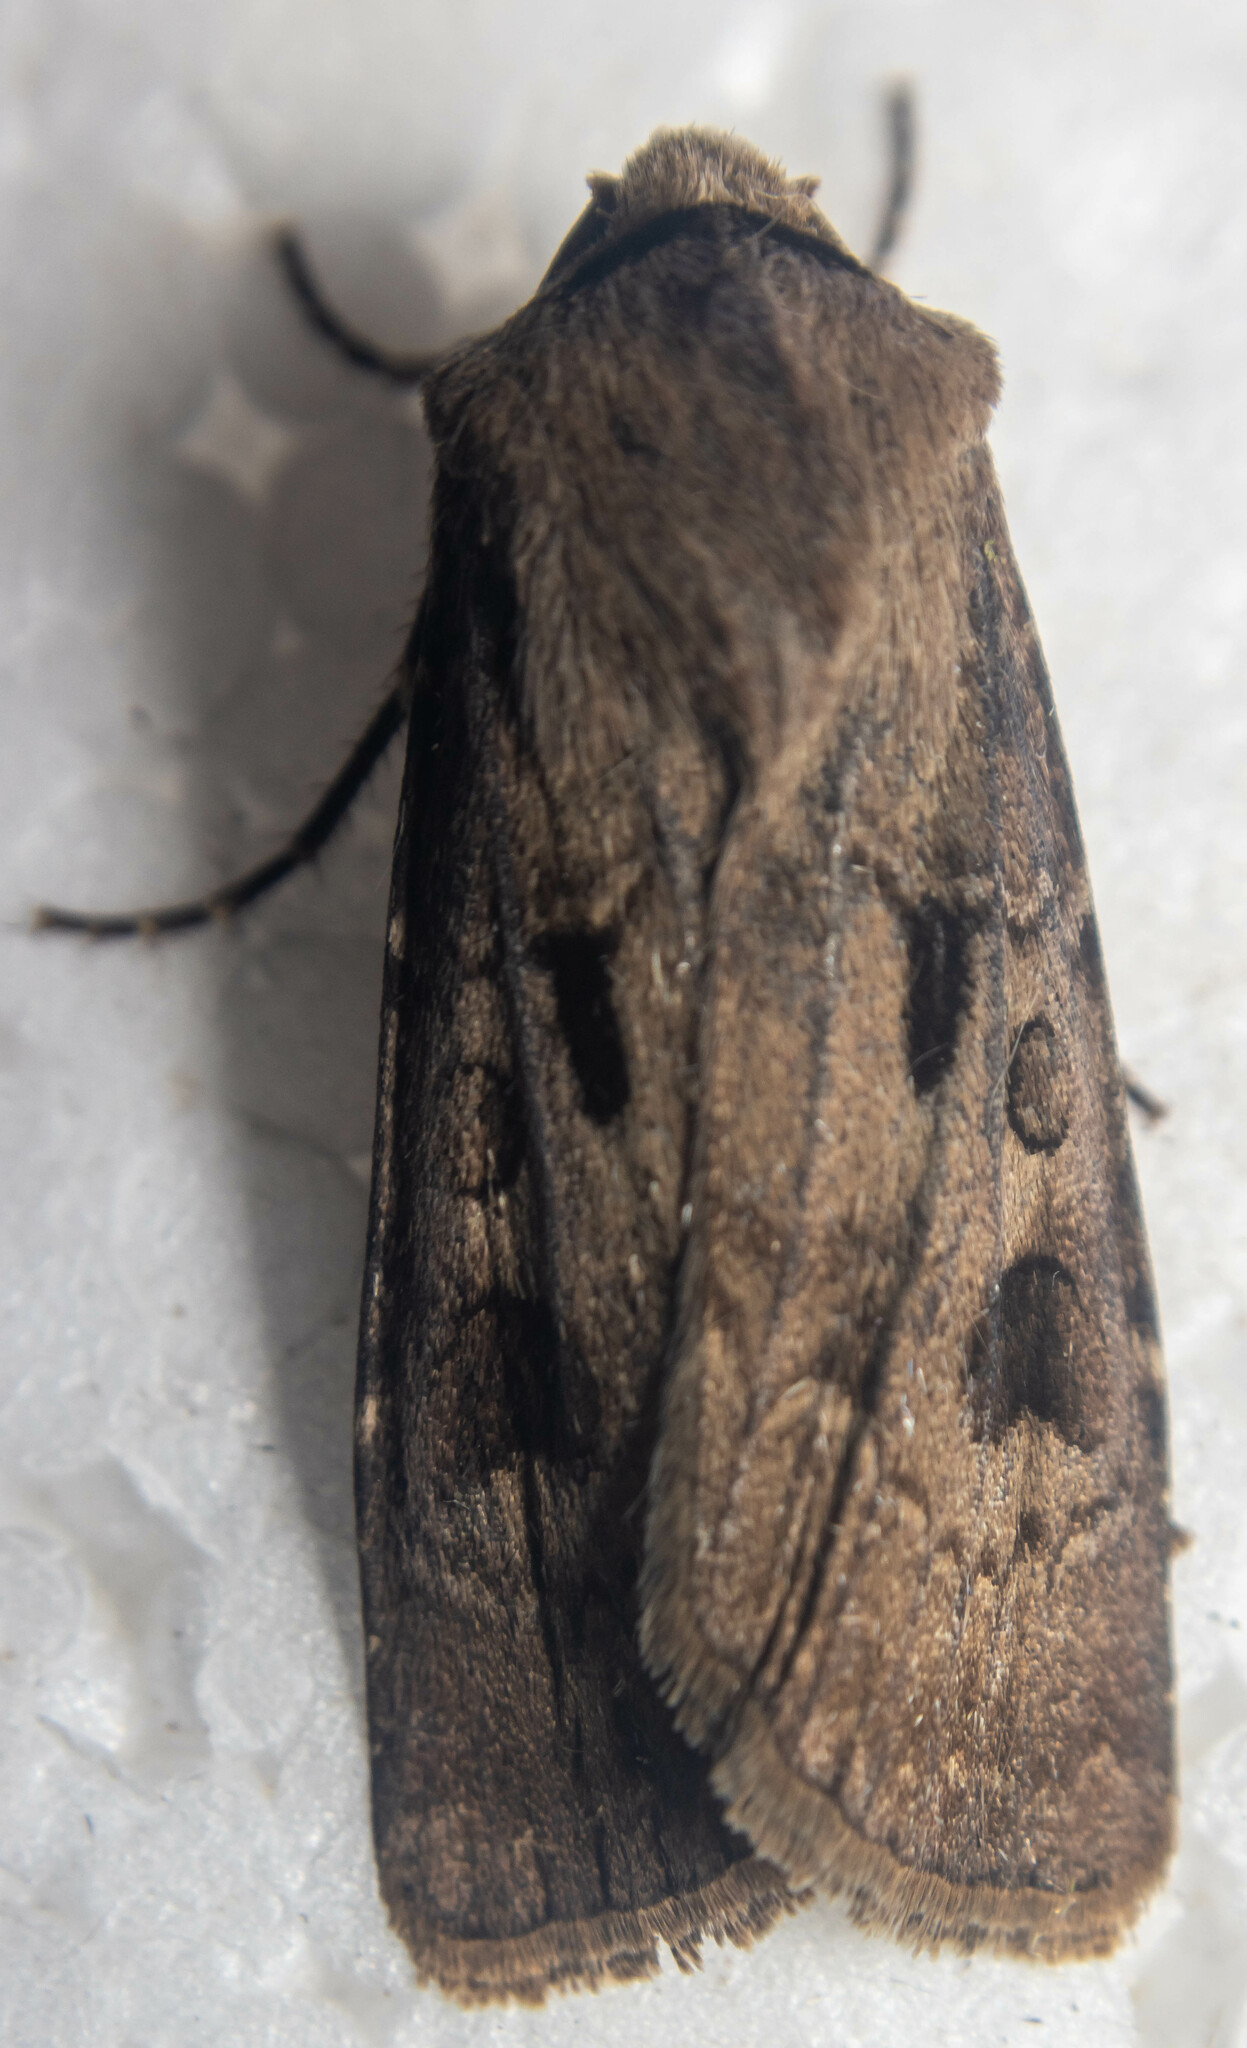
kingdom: Animalia
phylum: Arthropoda
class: Insecta
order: Lepidoptera
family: Noctuidae
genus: Agrotis
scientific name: Agrotis exclamationis
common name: Heart and dart
